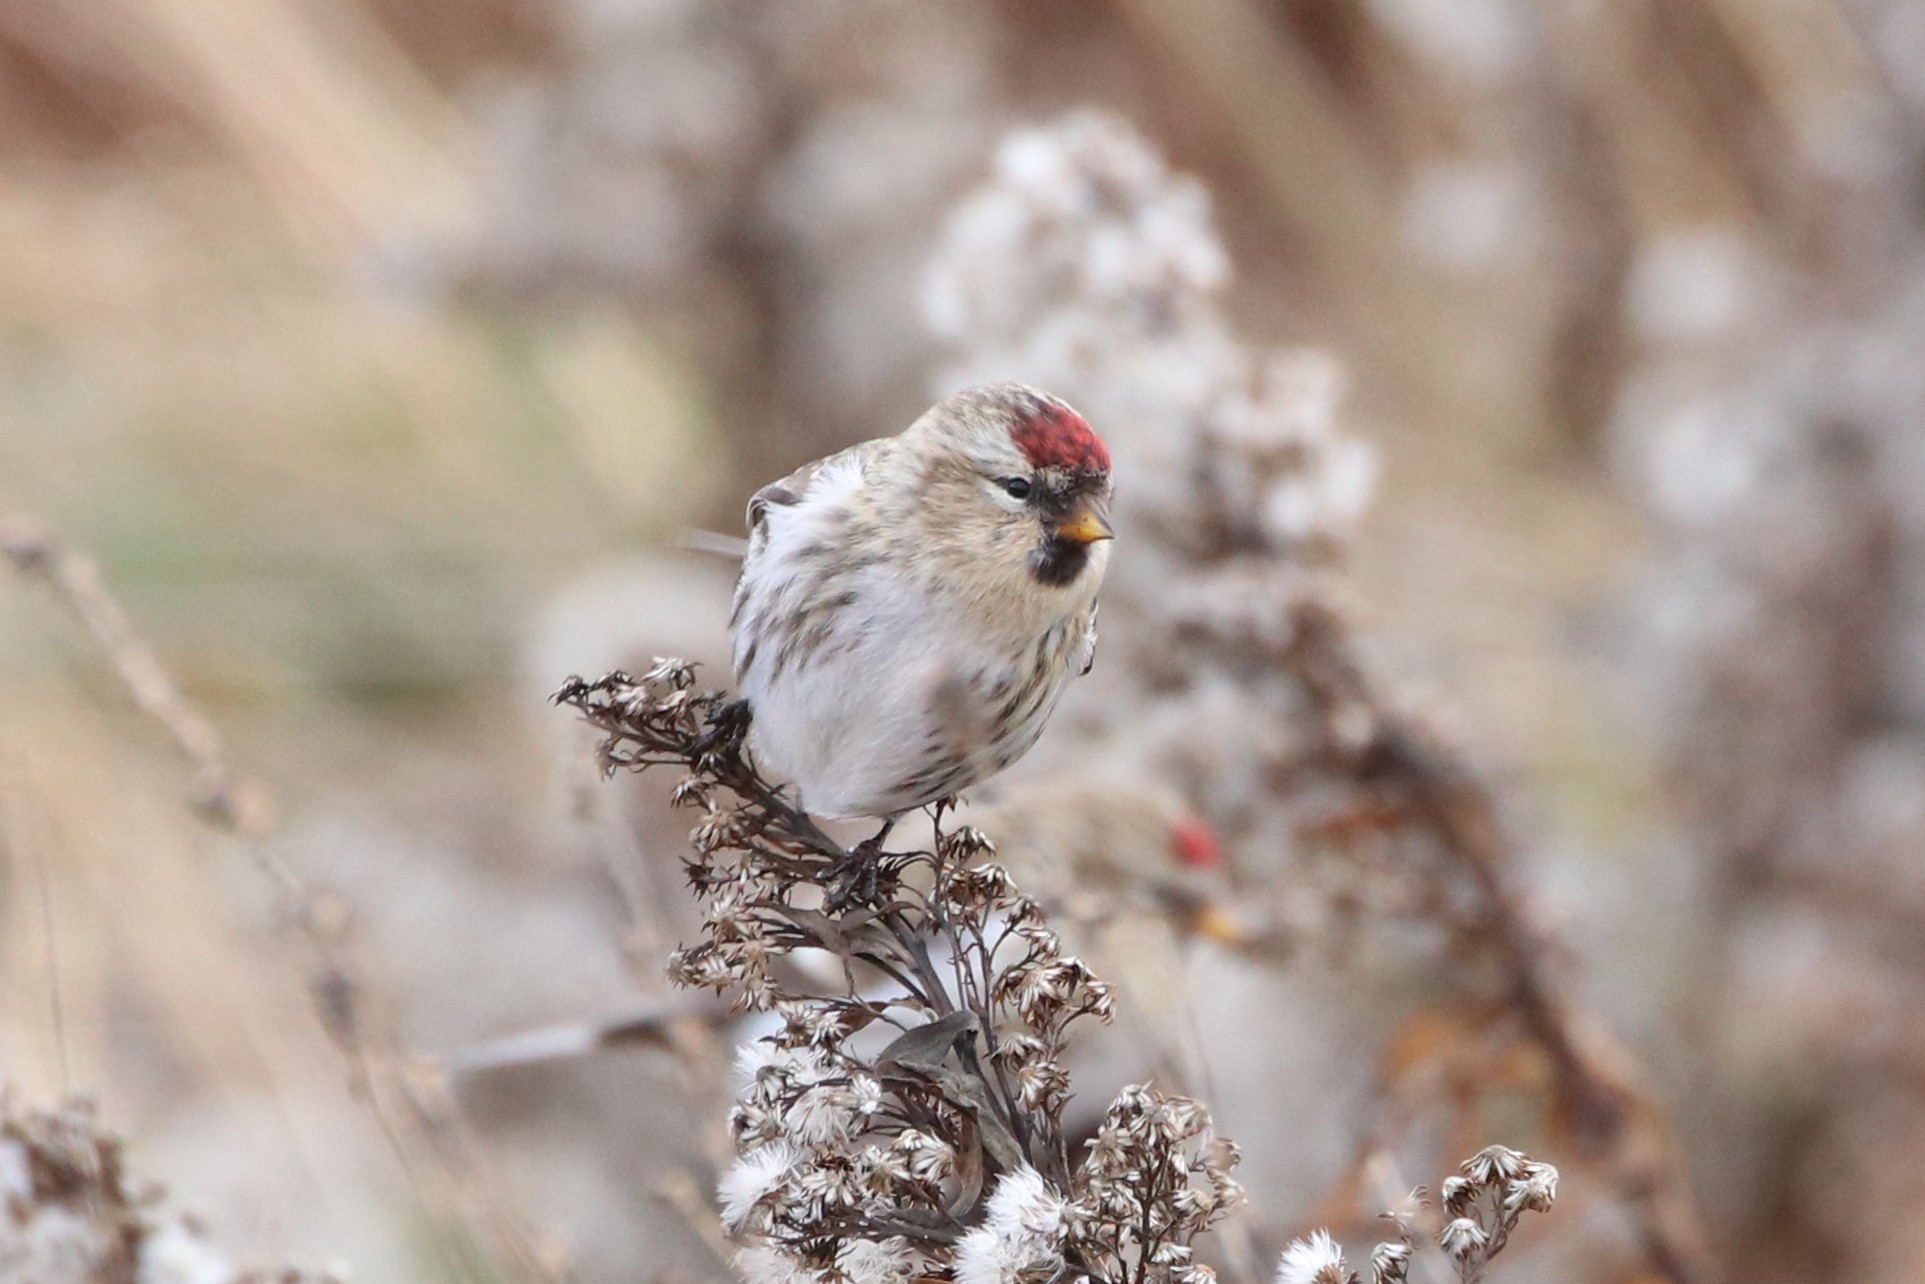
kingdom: Animalia
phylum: Chordata
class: Aves
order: Passeriformes
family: Fringillidae
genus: Acanthis
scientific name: Acanthis flammea
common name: Common redpoll
